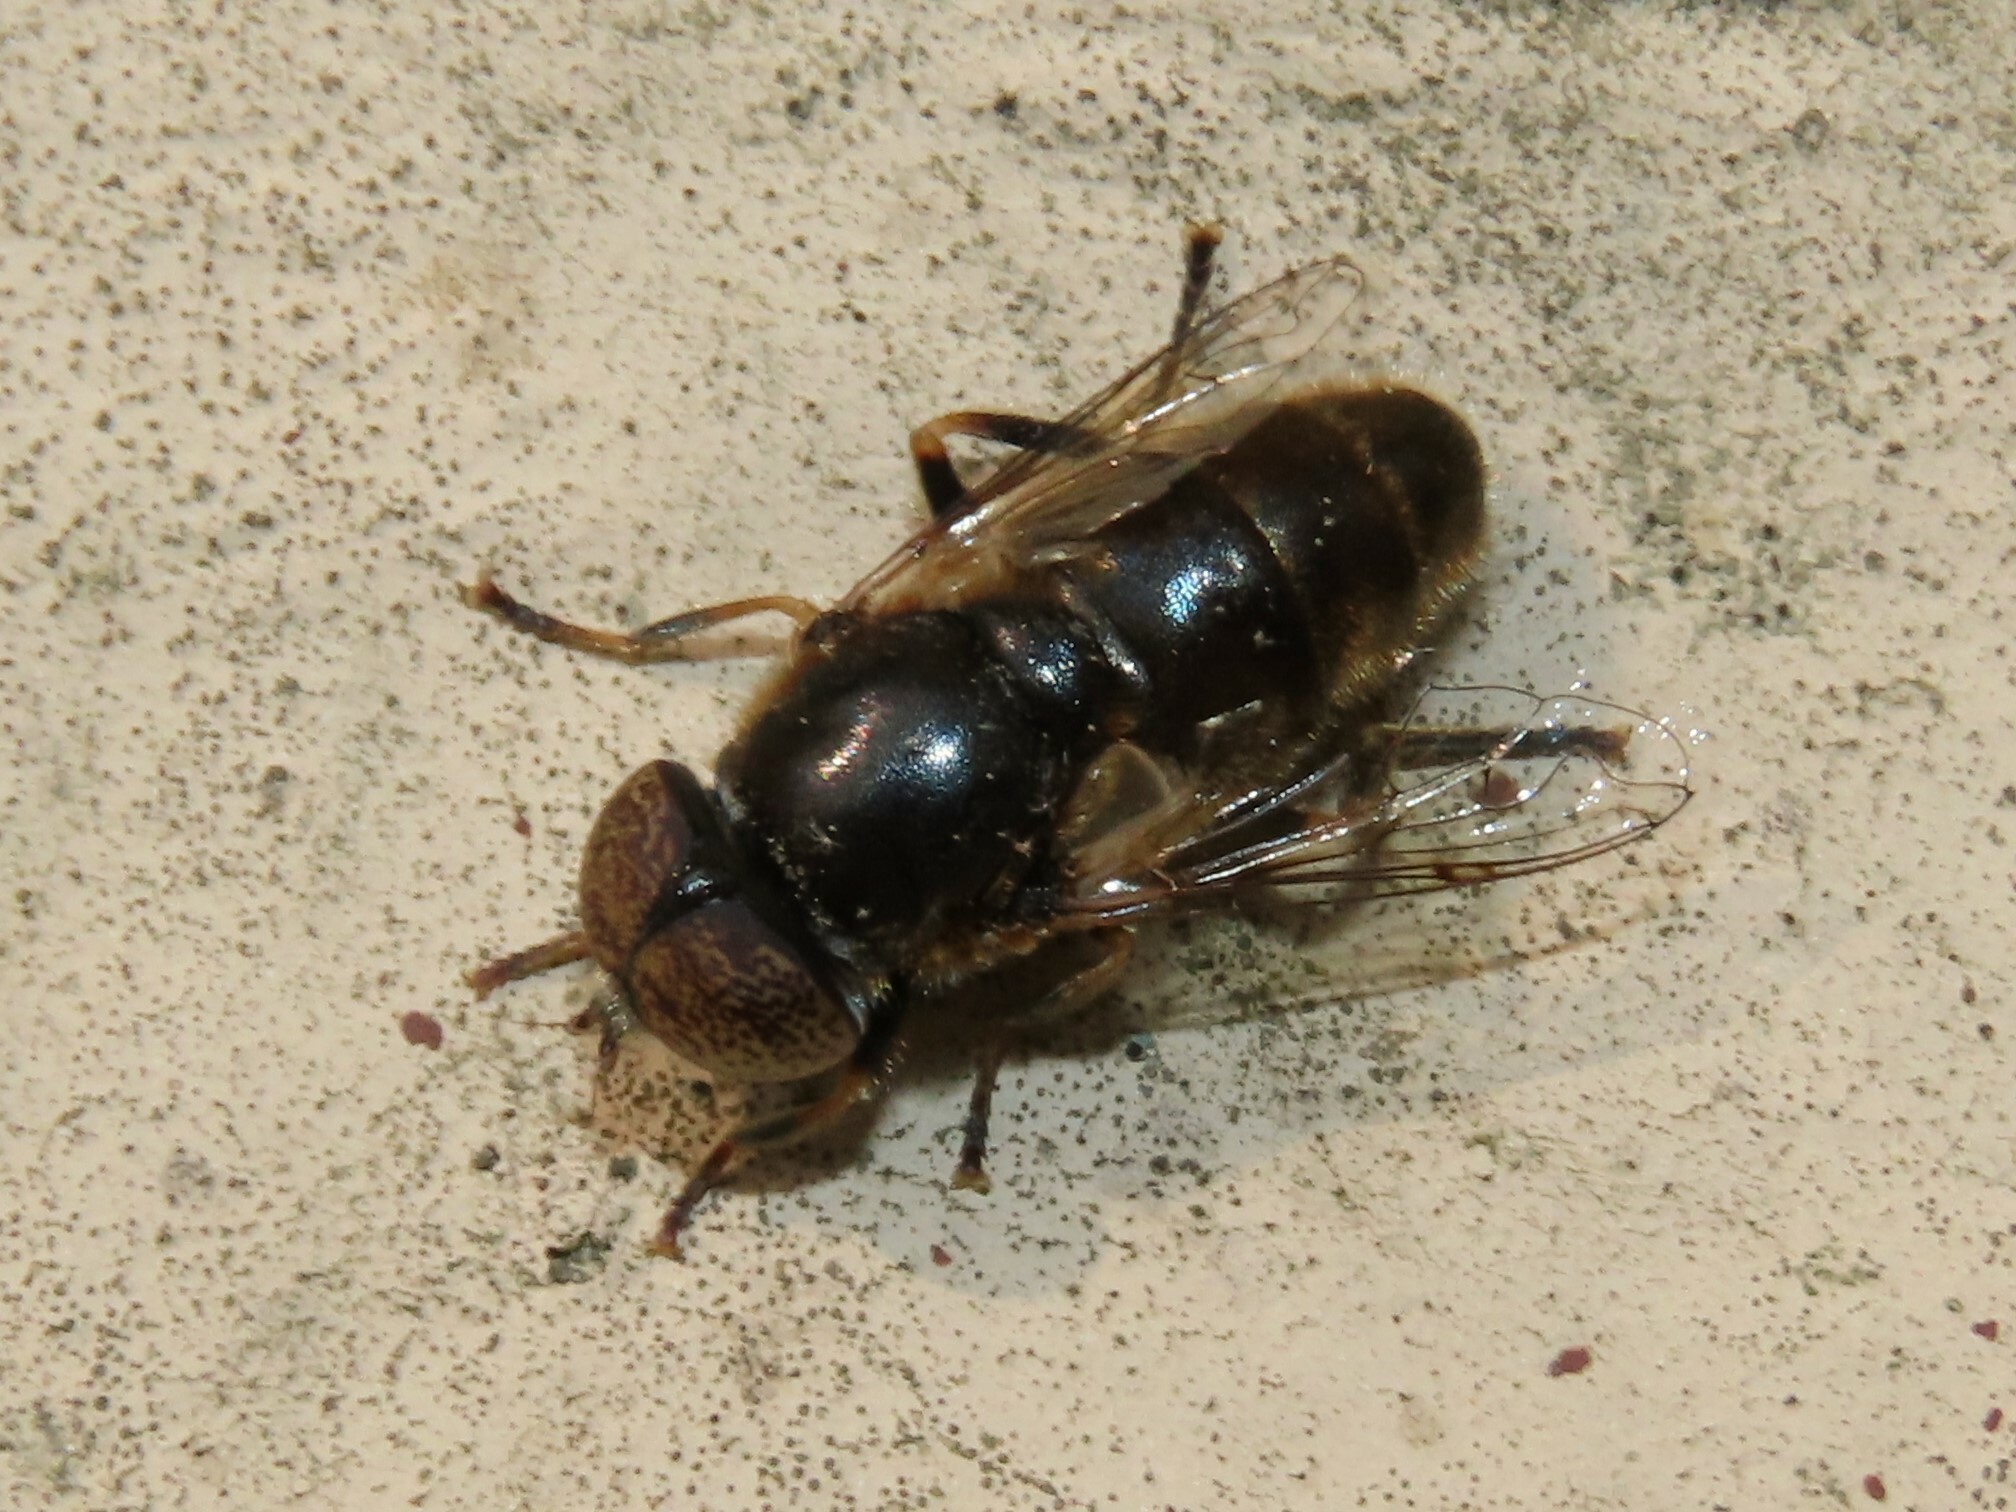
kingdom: Animalia
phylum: Arthropoda
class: Insecta
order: Diptera
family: Syrphidae
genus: Eristalinus
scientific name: Eristalinus aeneus
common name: Syrphid fly
